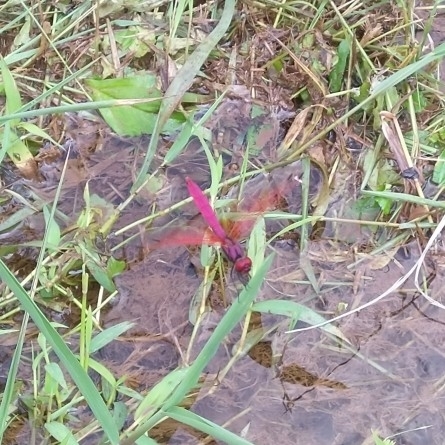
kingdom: Animalia
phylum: Arthropoda
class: Insecta
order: Odonata
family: Libellulidae
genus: Trithemis
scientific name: Trithemis aurora
